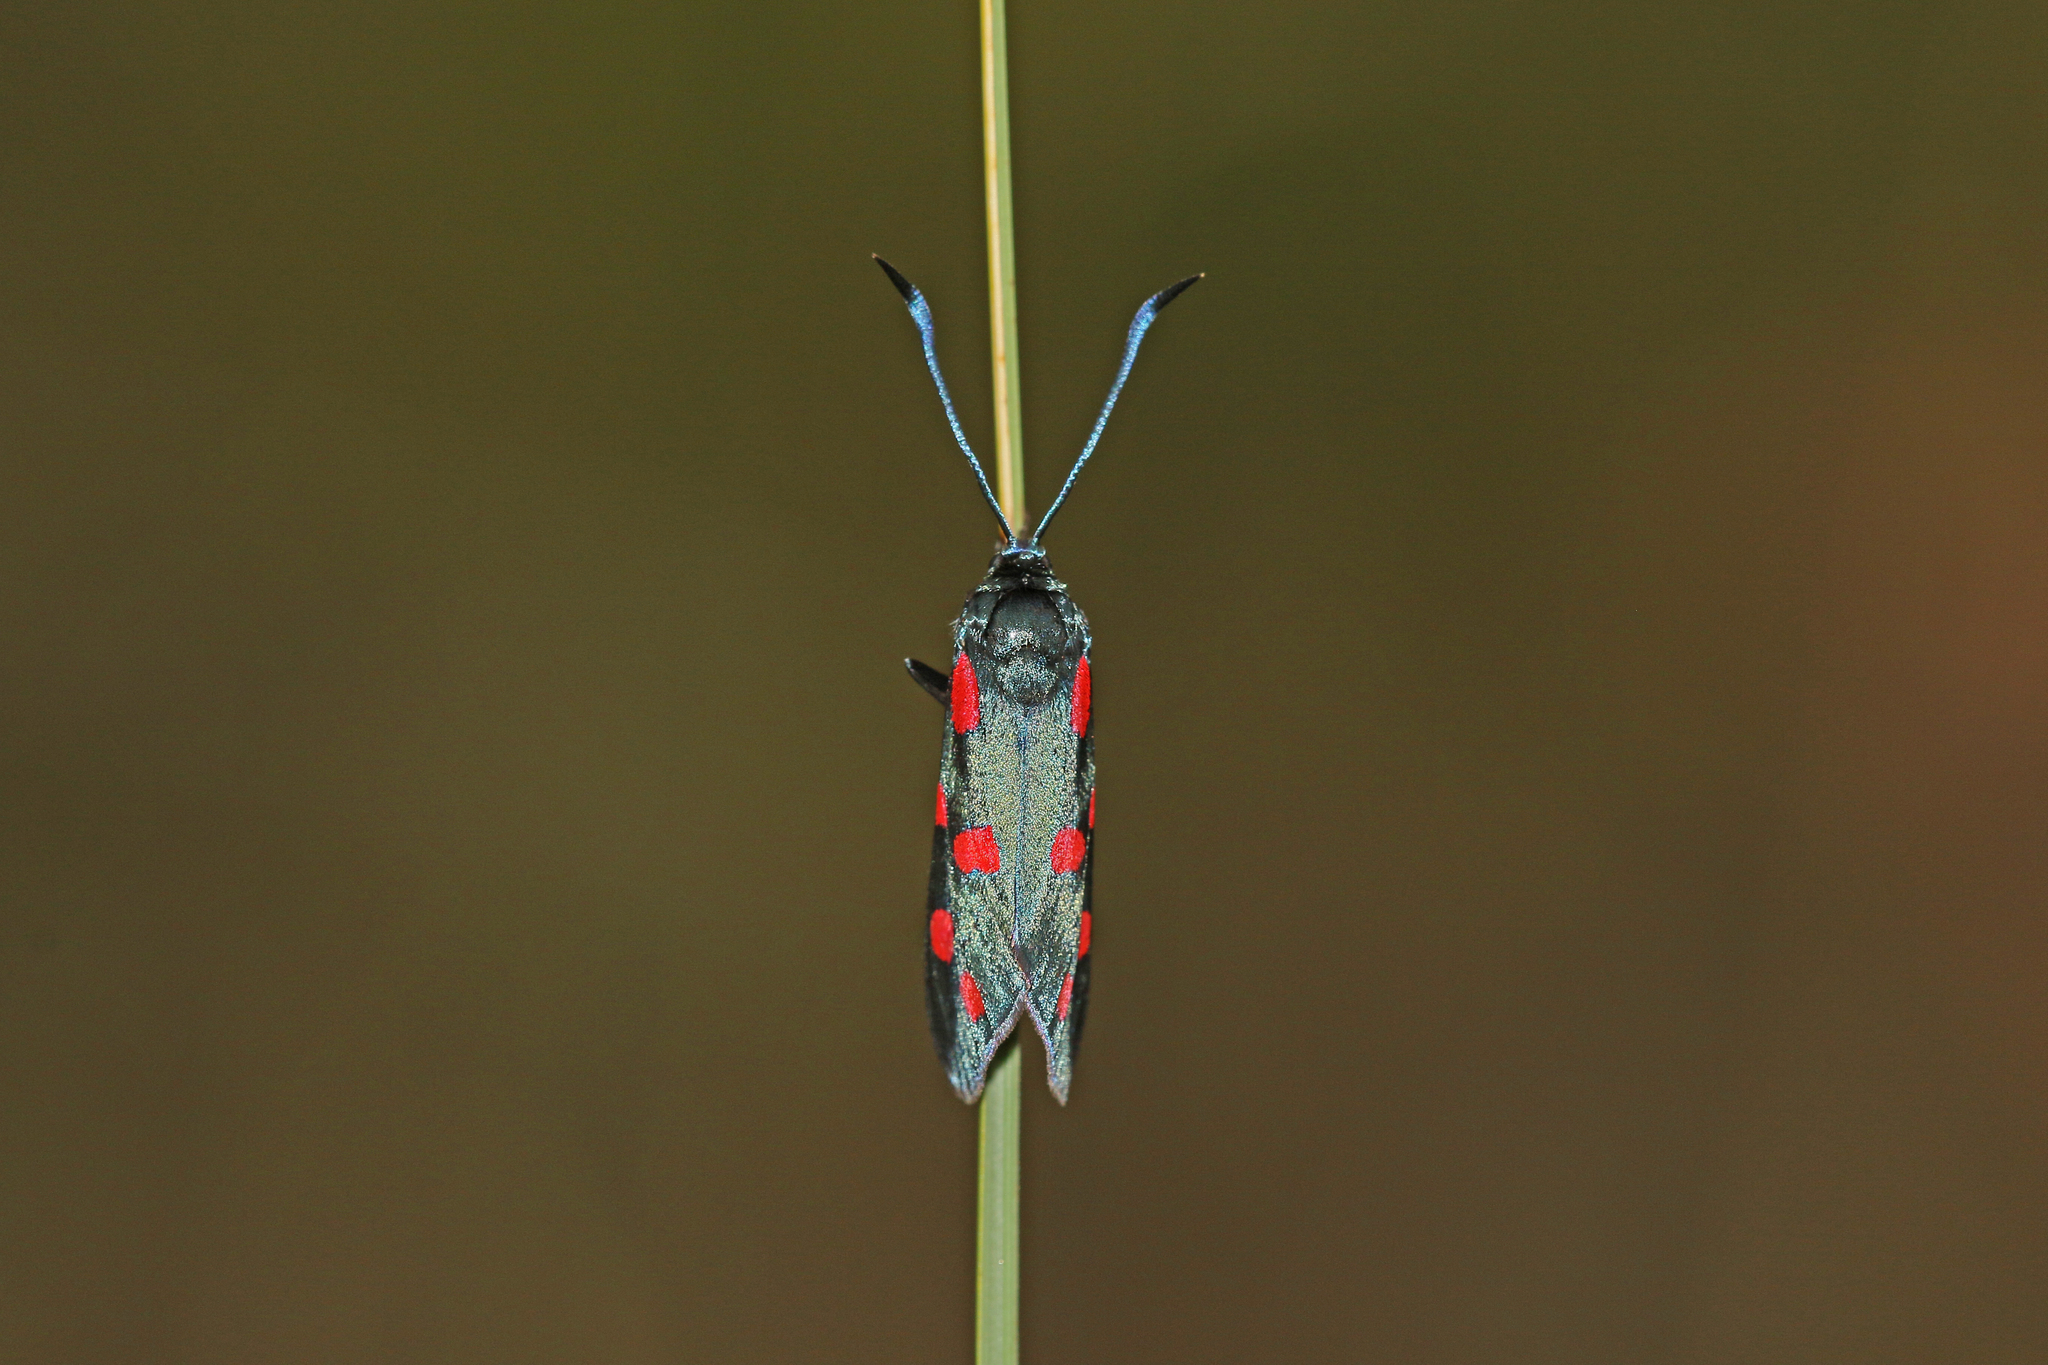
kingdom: Animalia
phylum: Arthropoda
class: Insecta
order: Lepidoptera
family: Zygaenidae
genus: Zygaena
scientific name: Zygaena transalpina
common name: Southern six spot burnet
